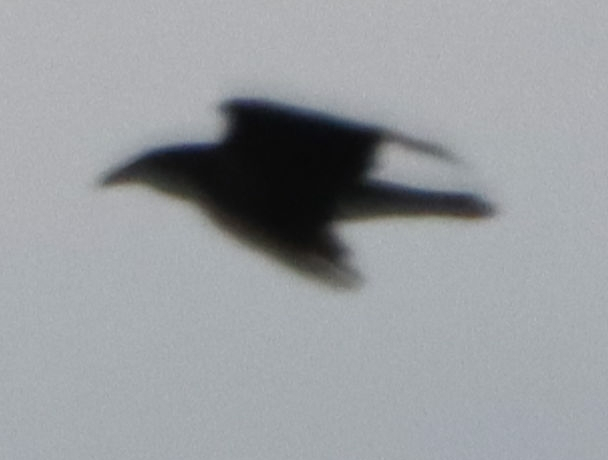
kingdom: Animalia
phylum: Chordata
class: Aves
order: Passeriformes
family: Corvidae
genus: Corvus
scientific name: Corvus corax
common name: Common raven
